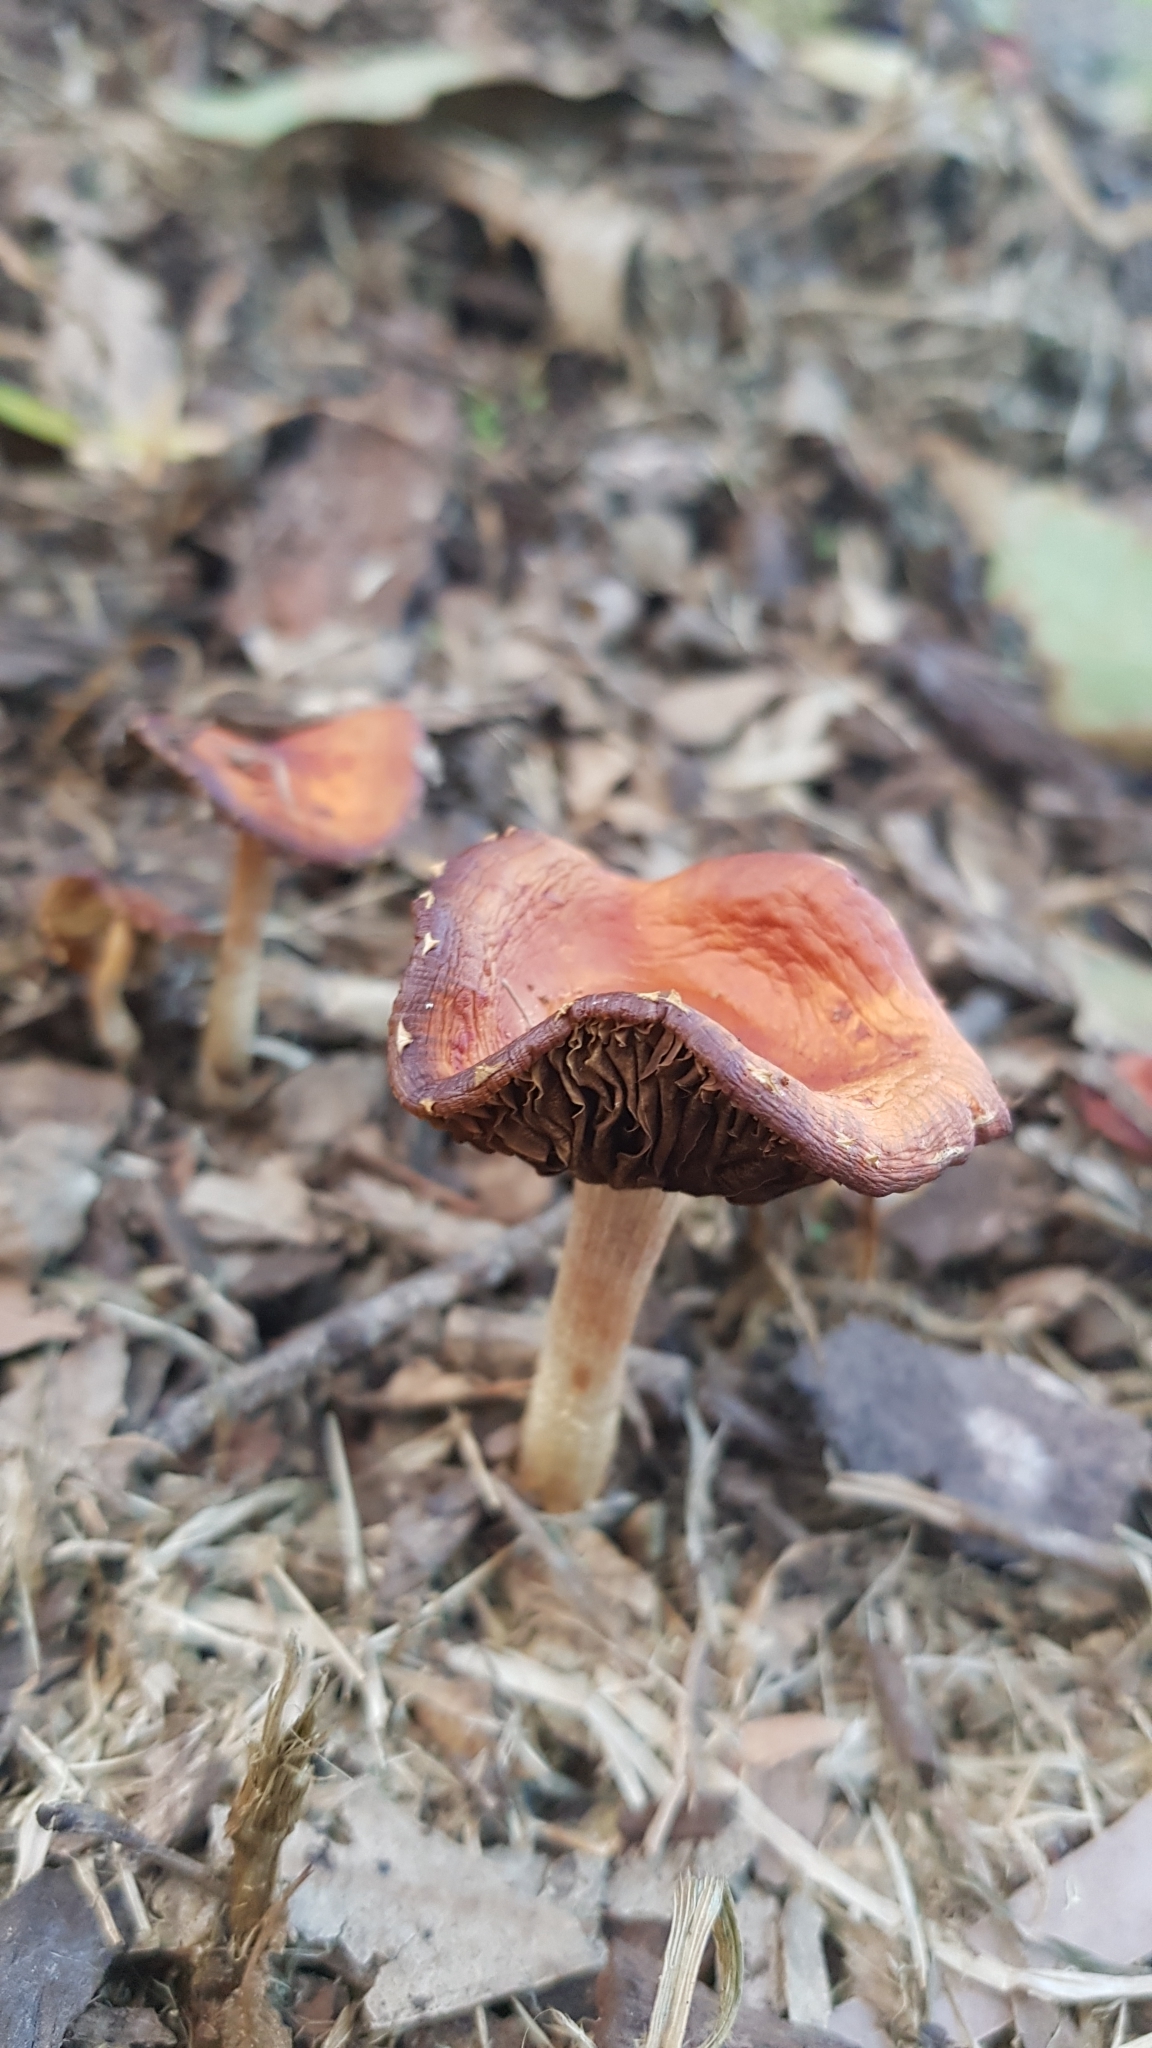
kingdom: Fungi
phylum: Basidiomycota
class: Agaricomycetes
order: Agaricales
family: Strophariaceae
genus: Leratiomyces
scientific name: Leratiomyces ceres
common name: Redlead roundhead
